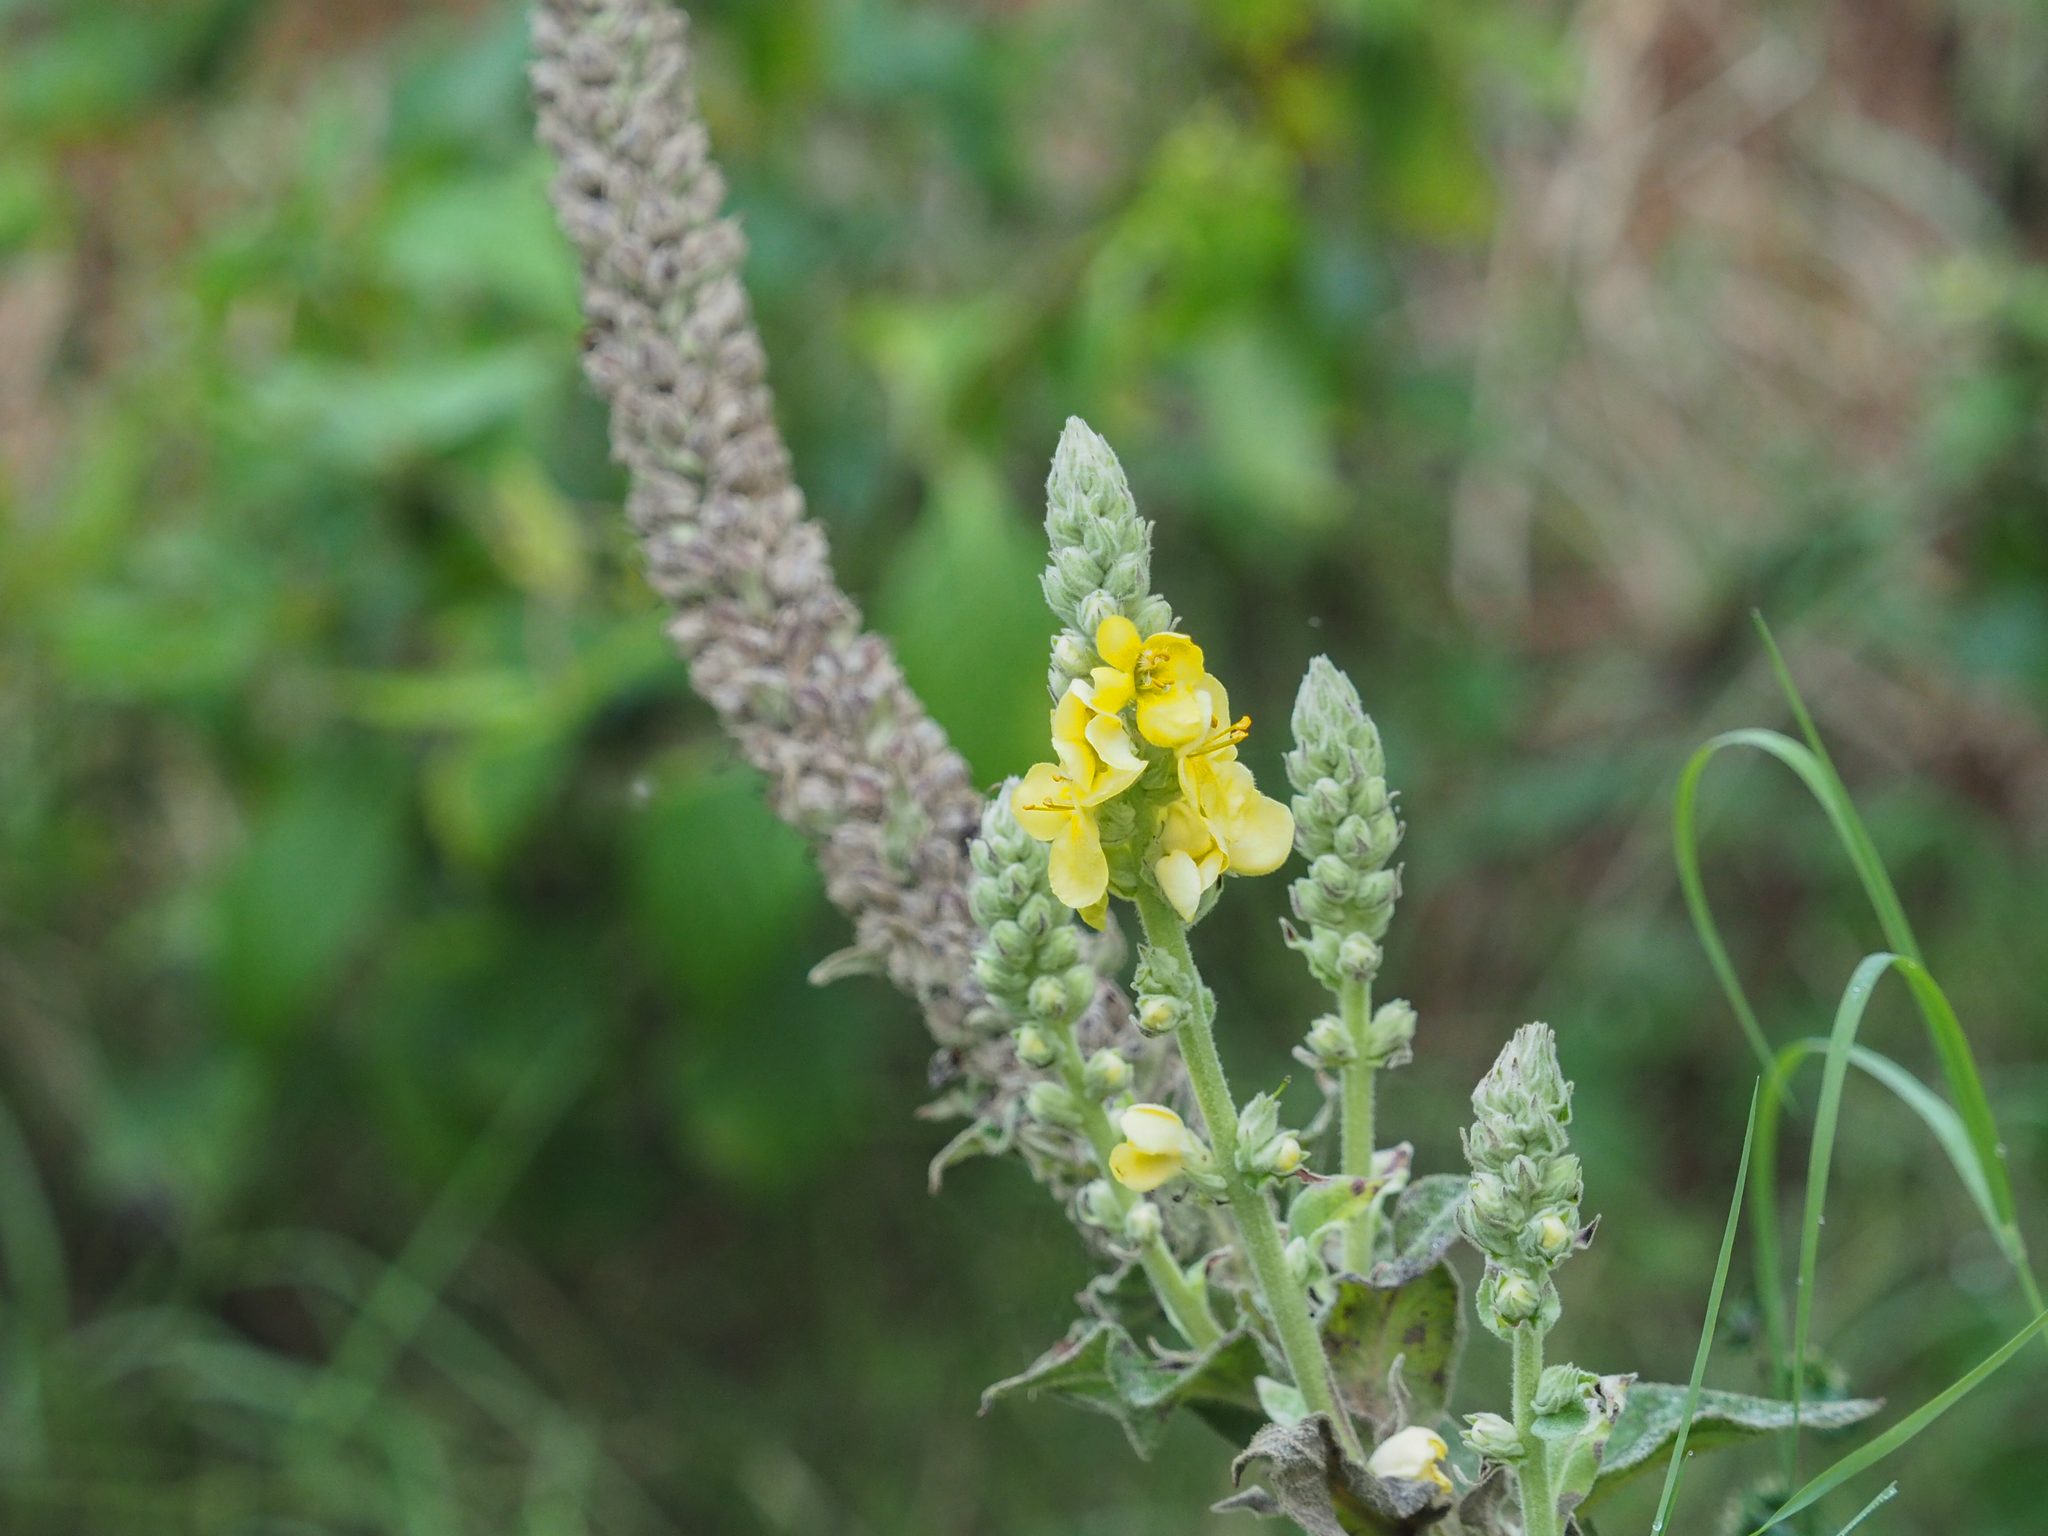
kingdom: Plantae
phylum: Tracheophyta
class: Magnoliopsida
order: Lamiales
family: Scrophulariaceae
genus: Verbascum
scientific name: Verbascum thapsus
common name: Common mullein
